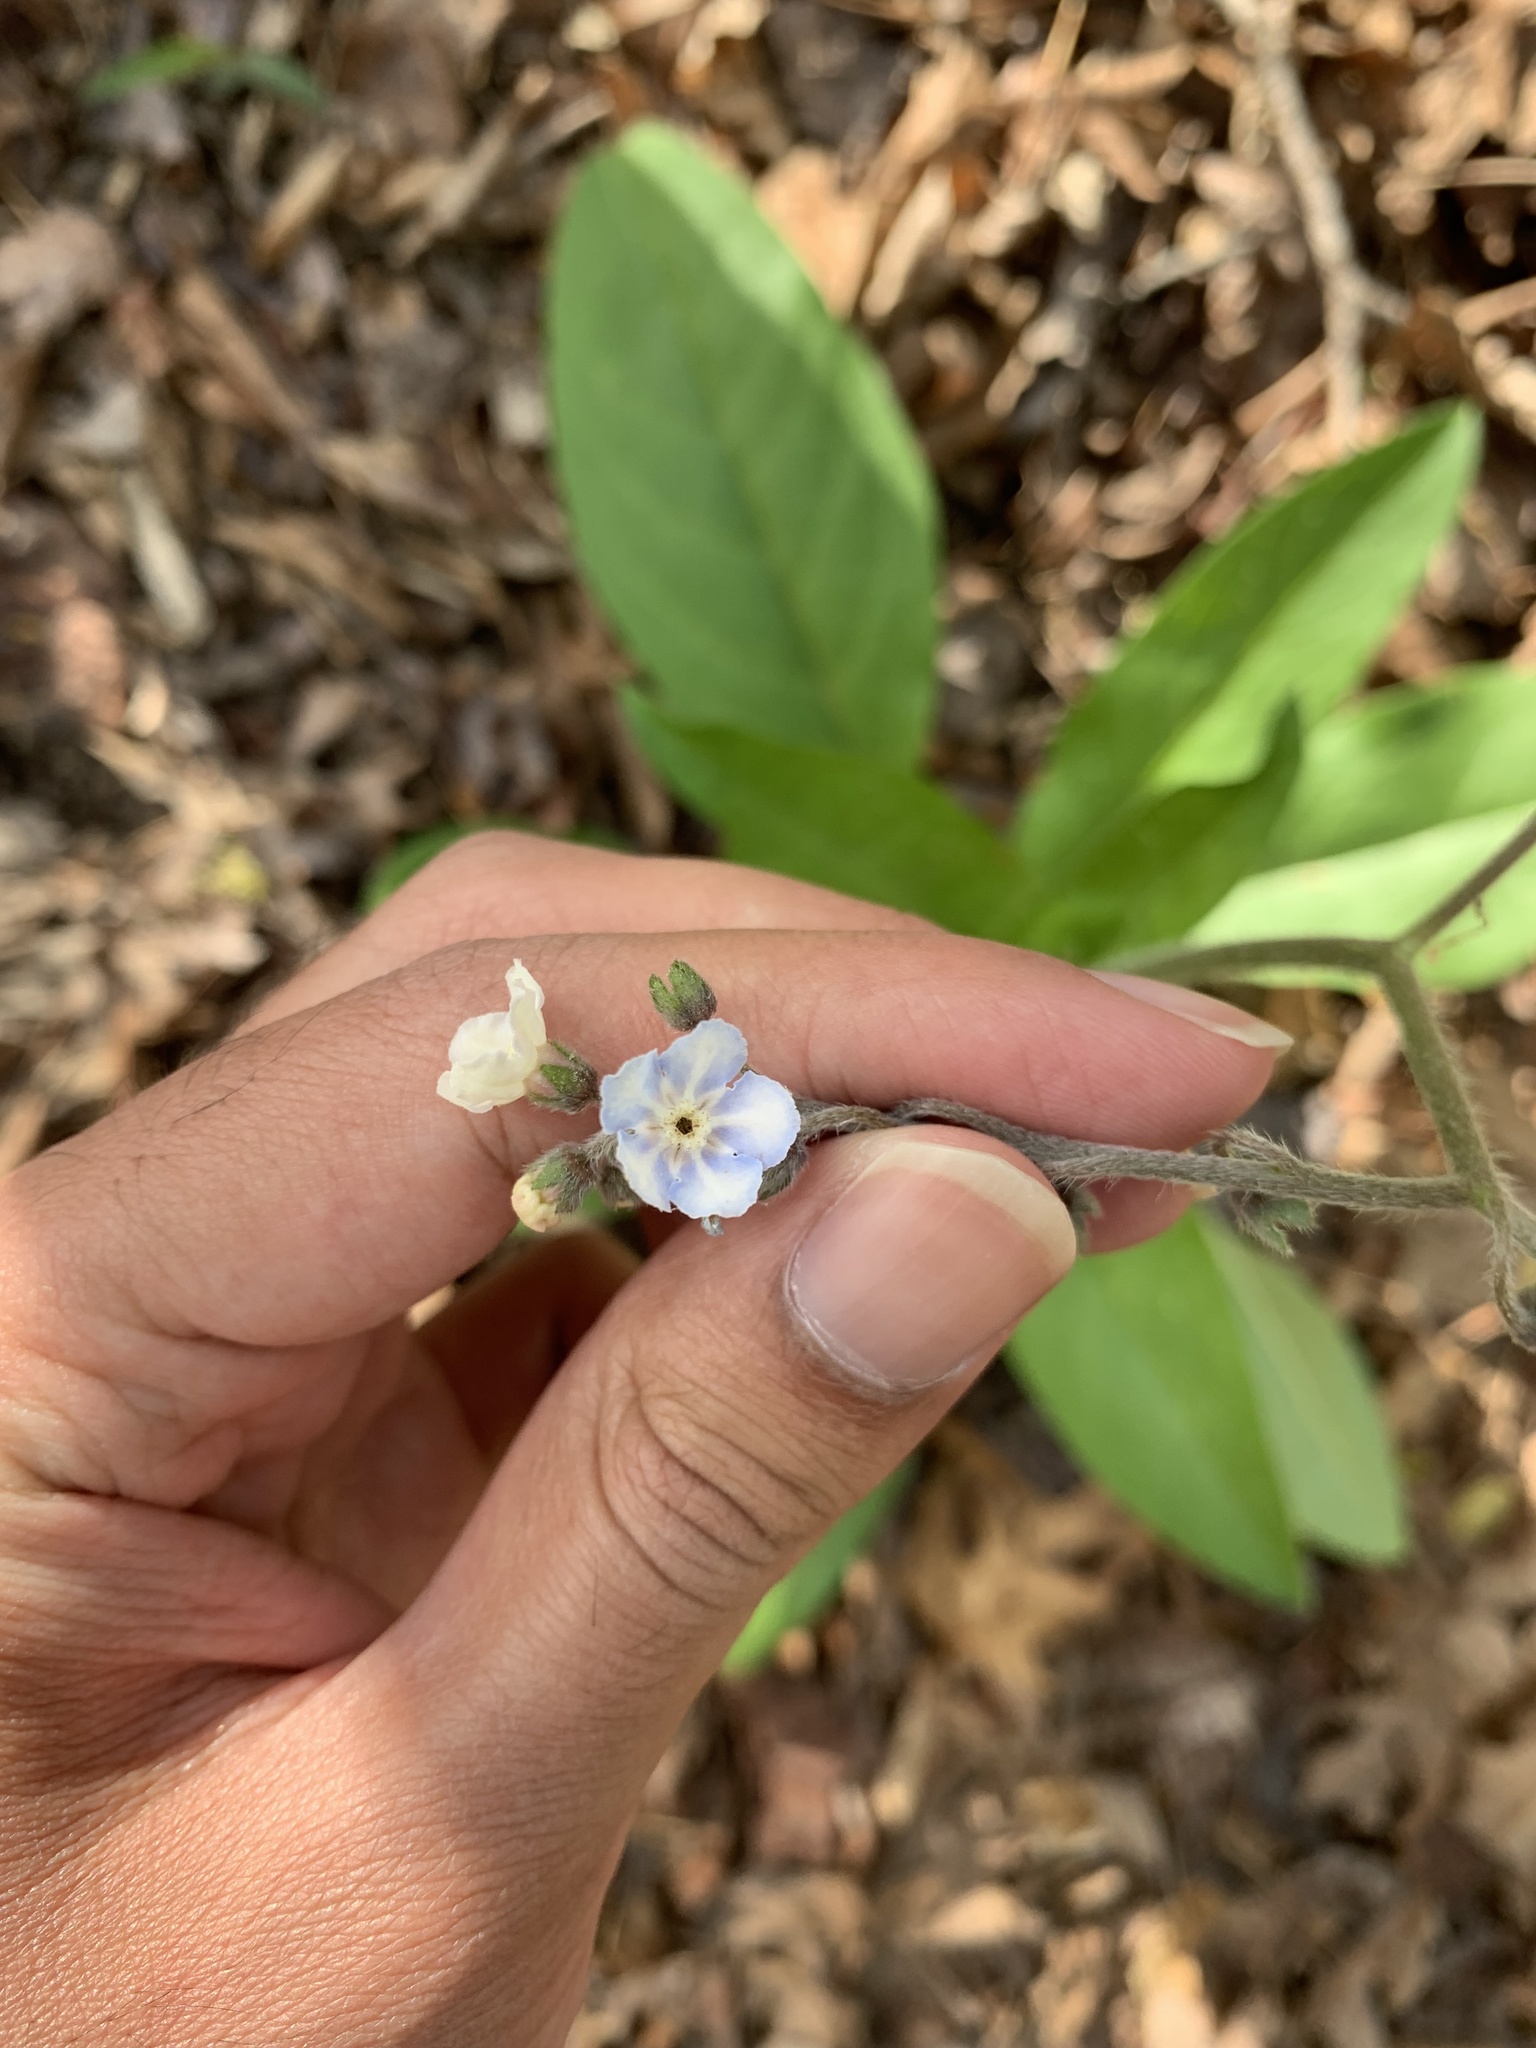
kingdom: Plantae
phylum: Tracheophyta
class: Magnoliopsida
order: Boraginales
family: Boraginaceae
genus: Andersonglossum
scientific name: Andersonglossum virginianum
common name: Wild comfrey
